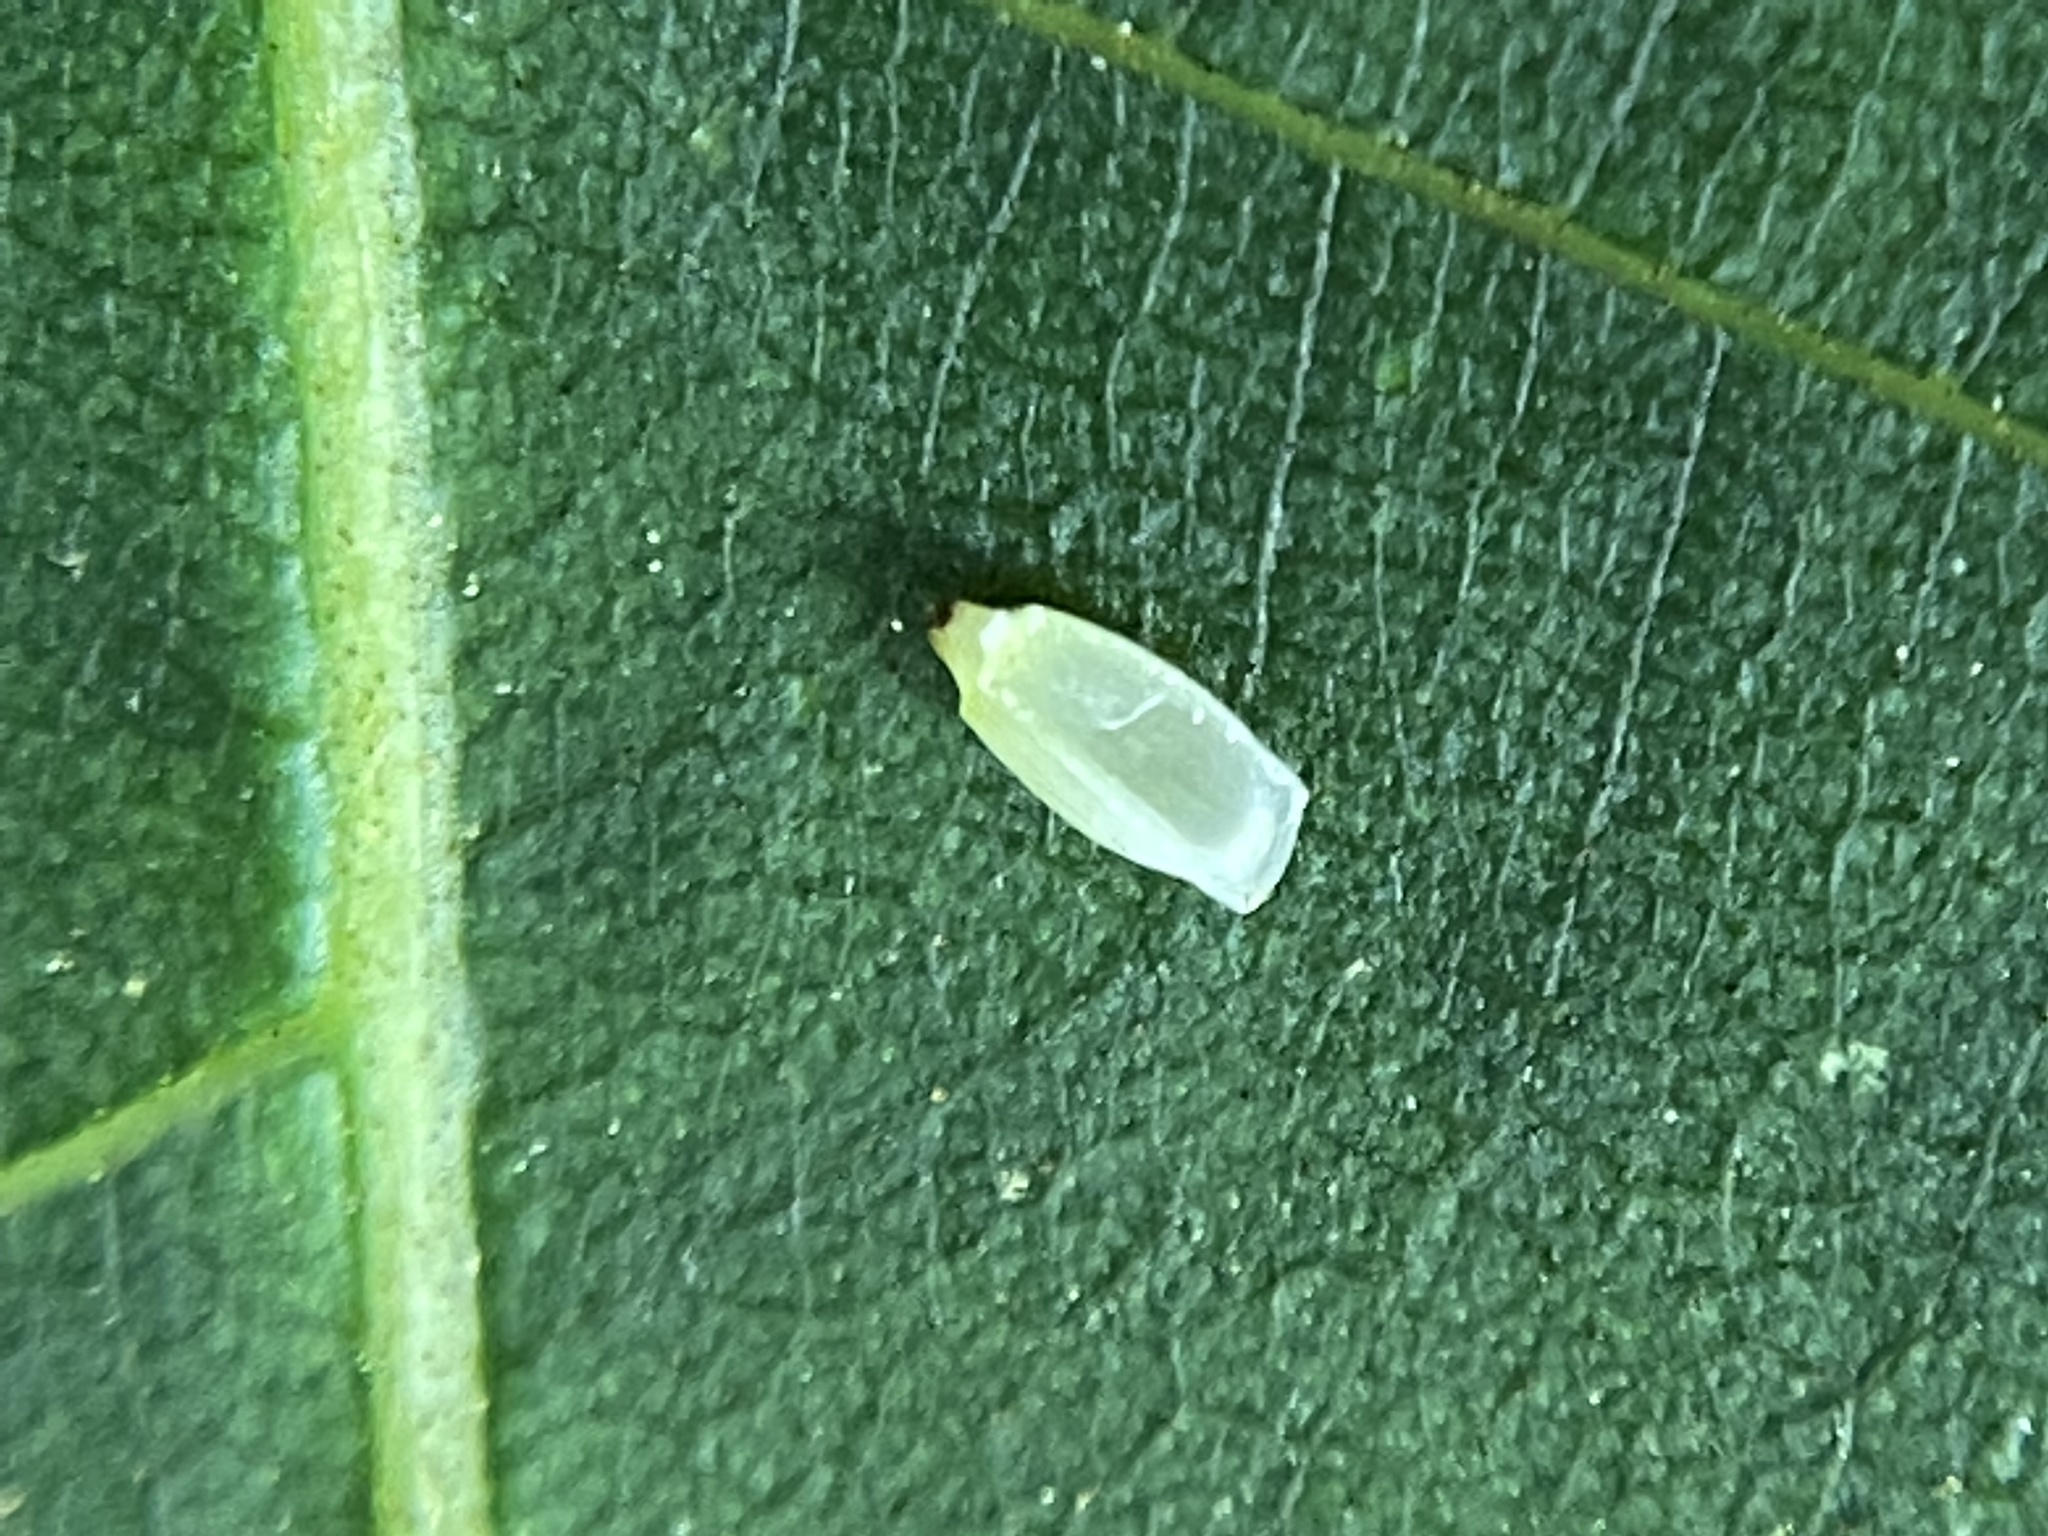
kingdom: Animalia
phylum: Arthropoda
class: Insecta
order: Diptera
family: Cecidomyiidae
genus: Caryomyia
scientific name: Caryomyia urnula
